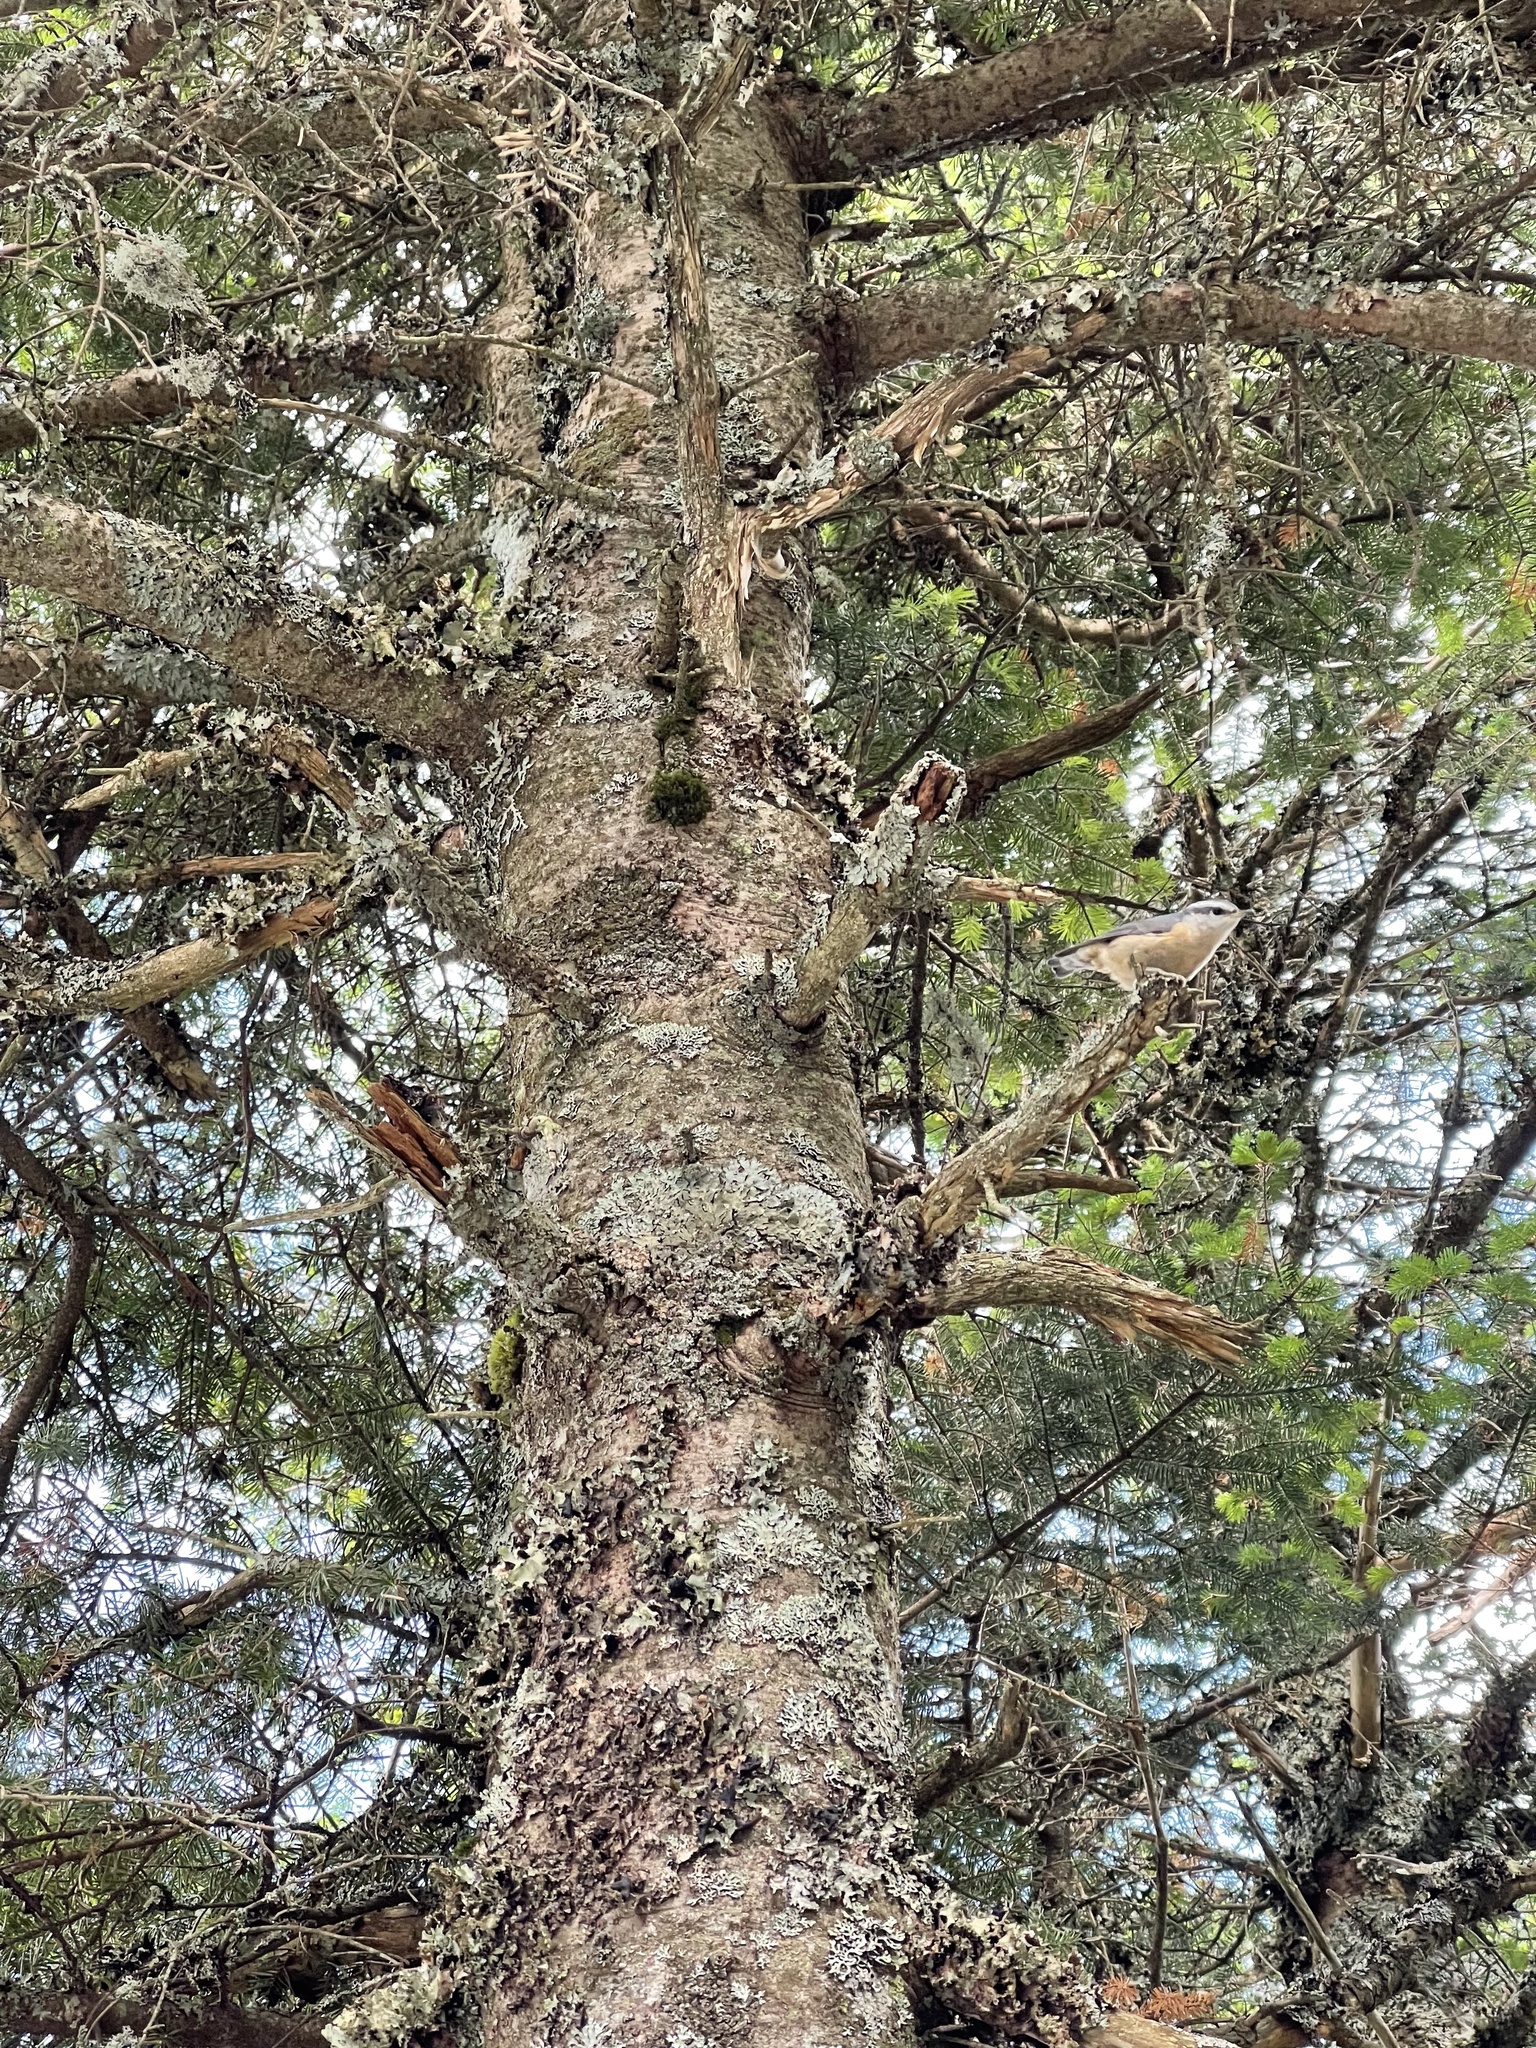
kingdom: Animalia
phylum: Chordata
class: Aves
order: Passeriformes
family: Sittidae
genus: Sitta
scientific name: Sitta canadensis
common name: Red-breasted nuthatch
